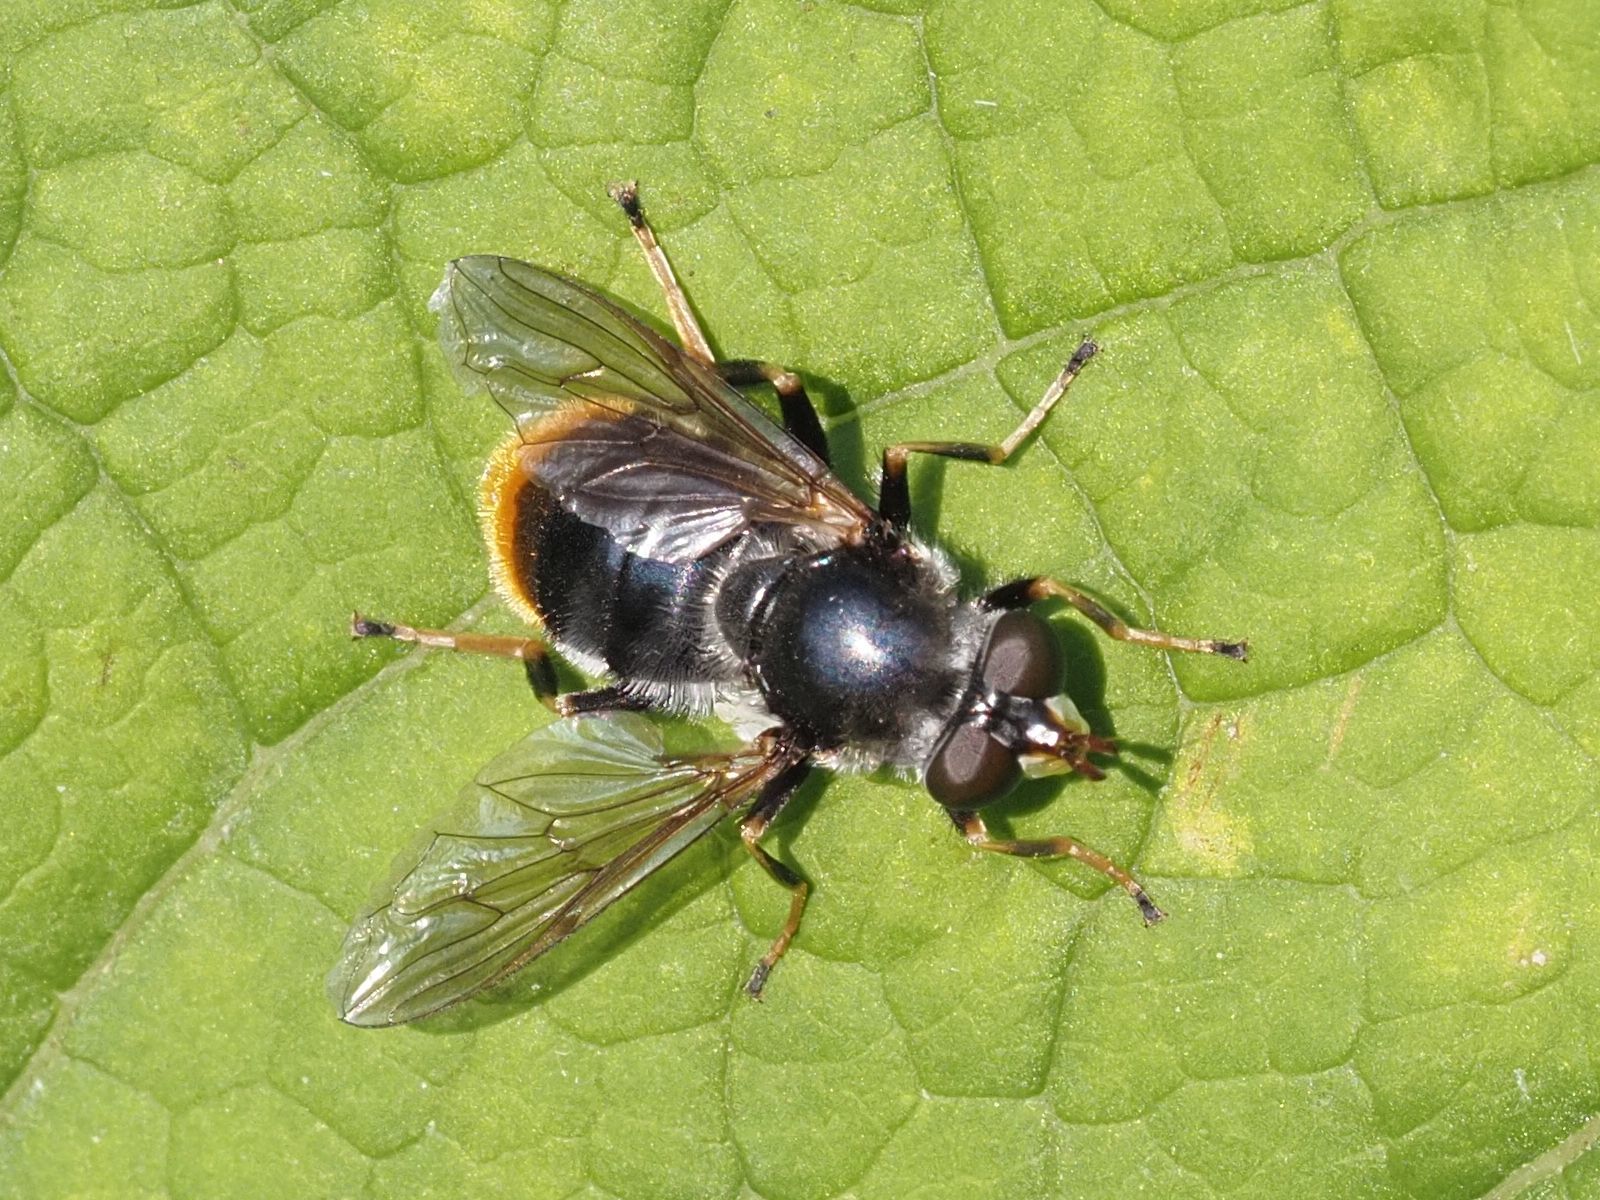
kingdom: Animalia
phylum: Arthropoda
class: Insecta
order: Diptera
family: Syrphidae
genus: Blera
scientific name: Blera fallax
